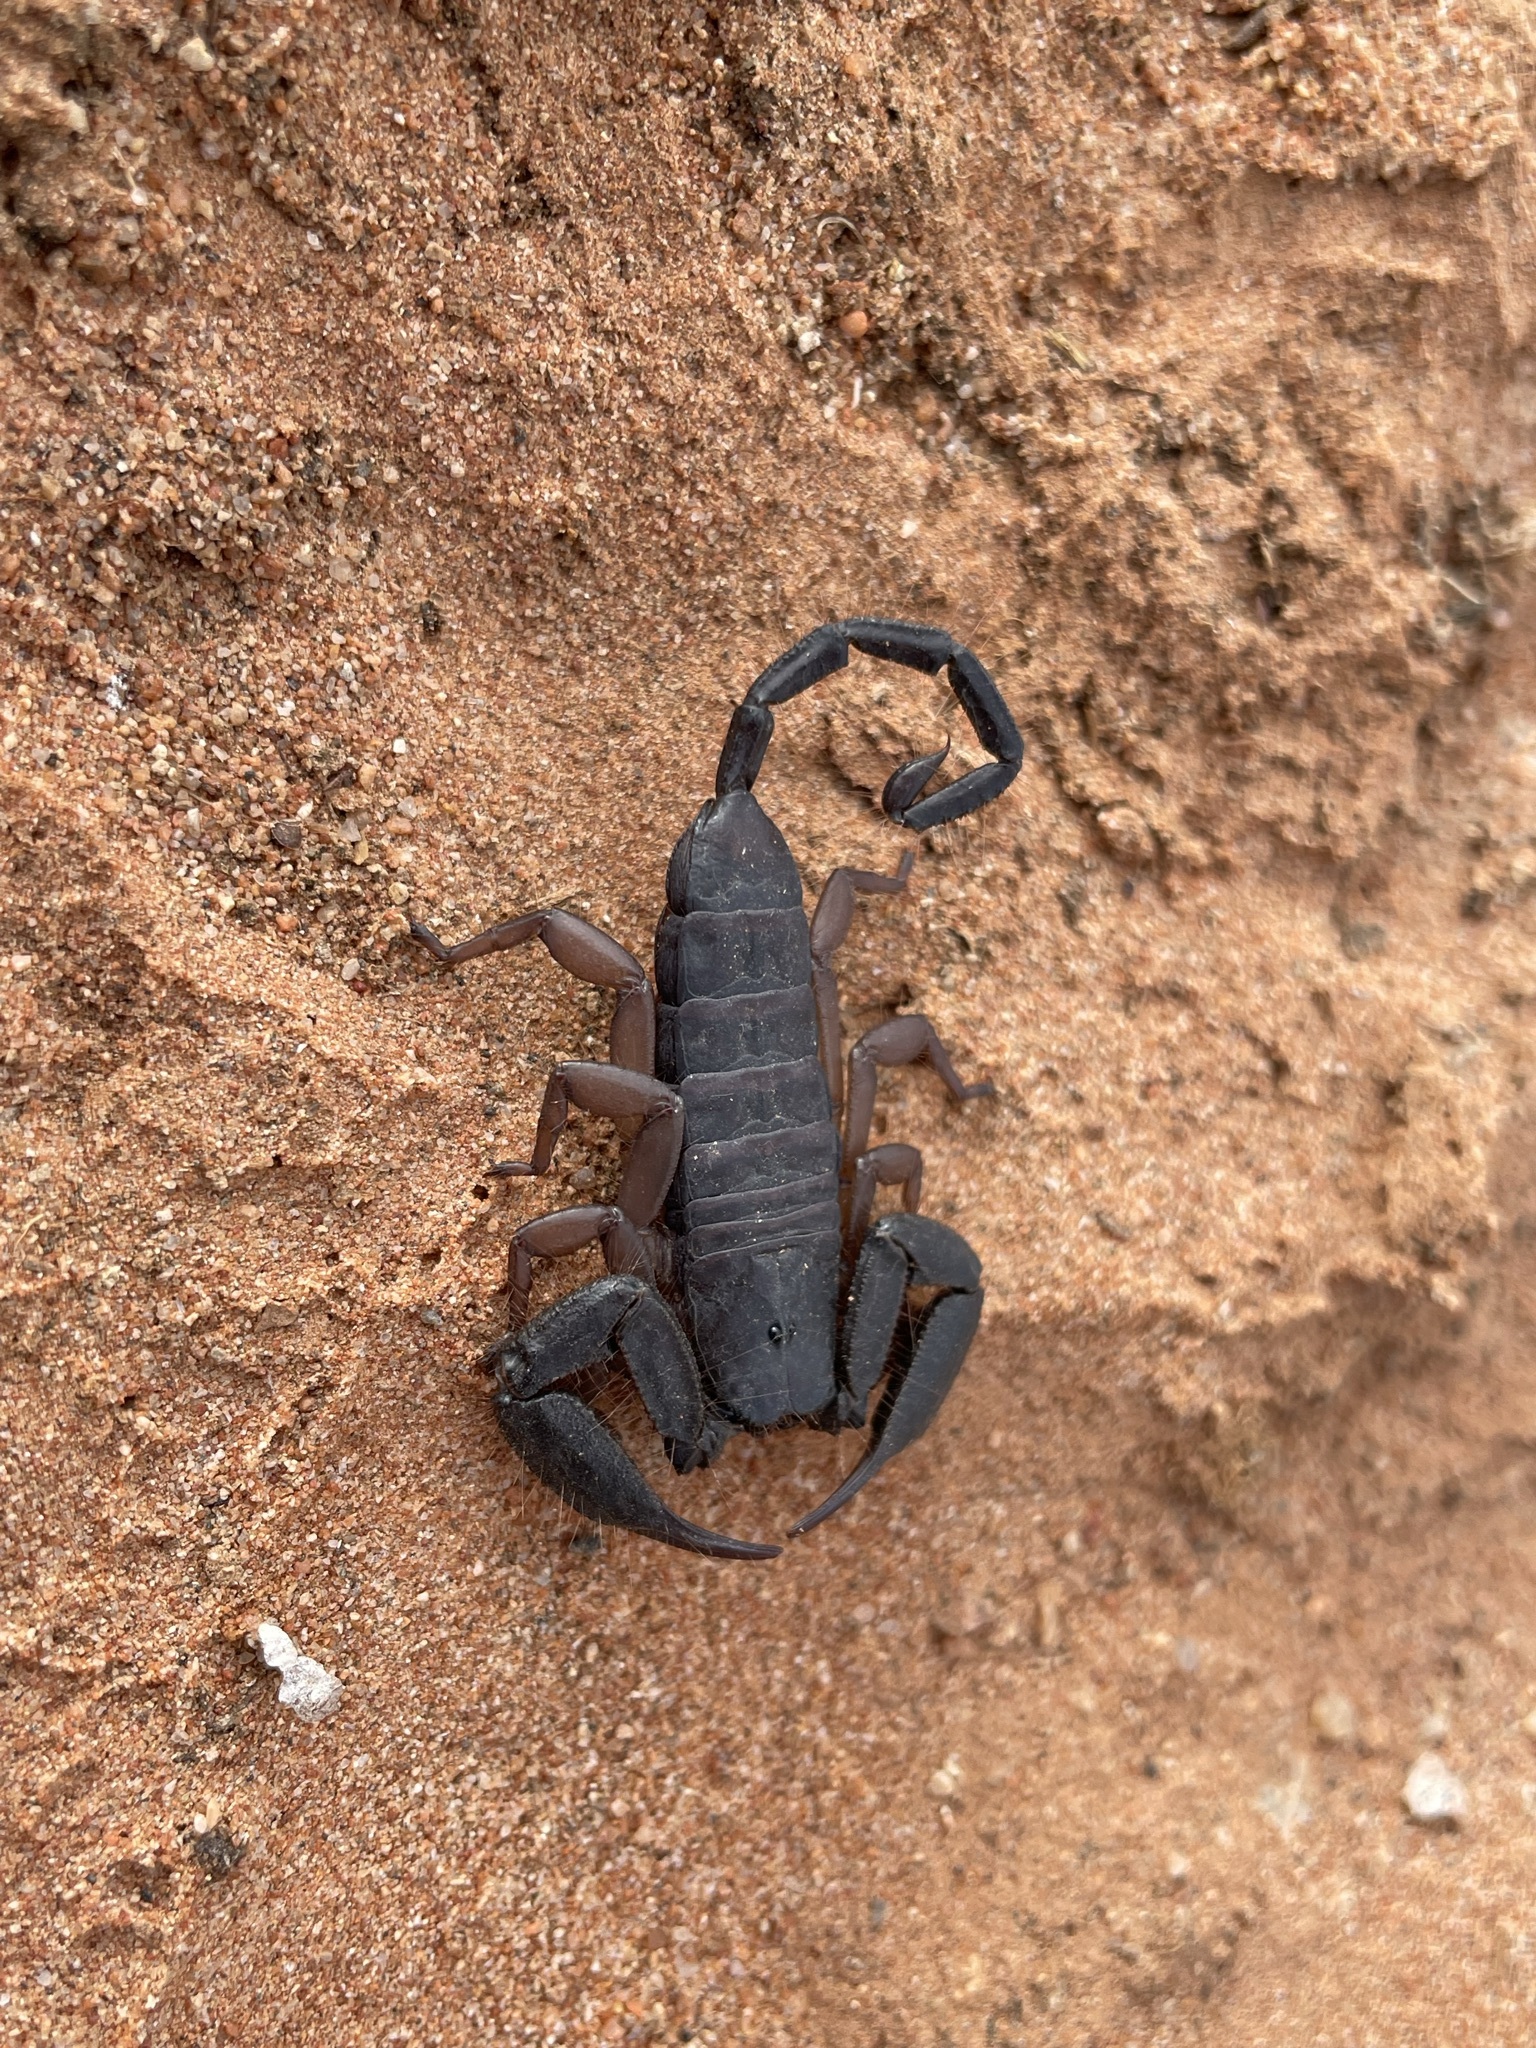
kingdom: Animalia
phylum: Arthropoda
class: Arachnida
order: Scorpiones
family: Hormuridae
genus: Hadogenes
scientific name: Hadogenes phyllodes
